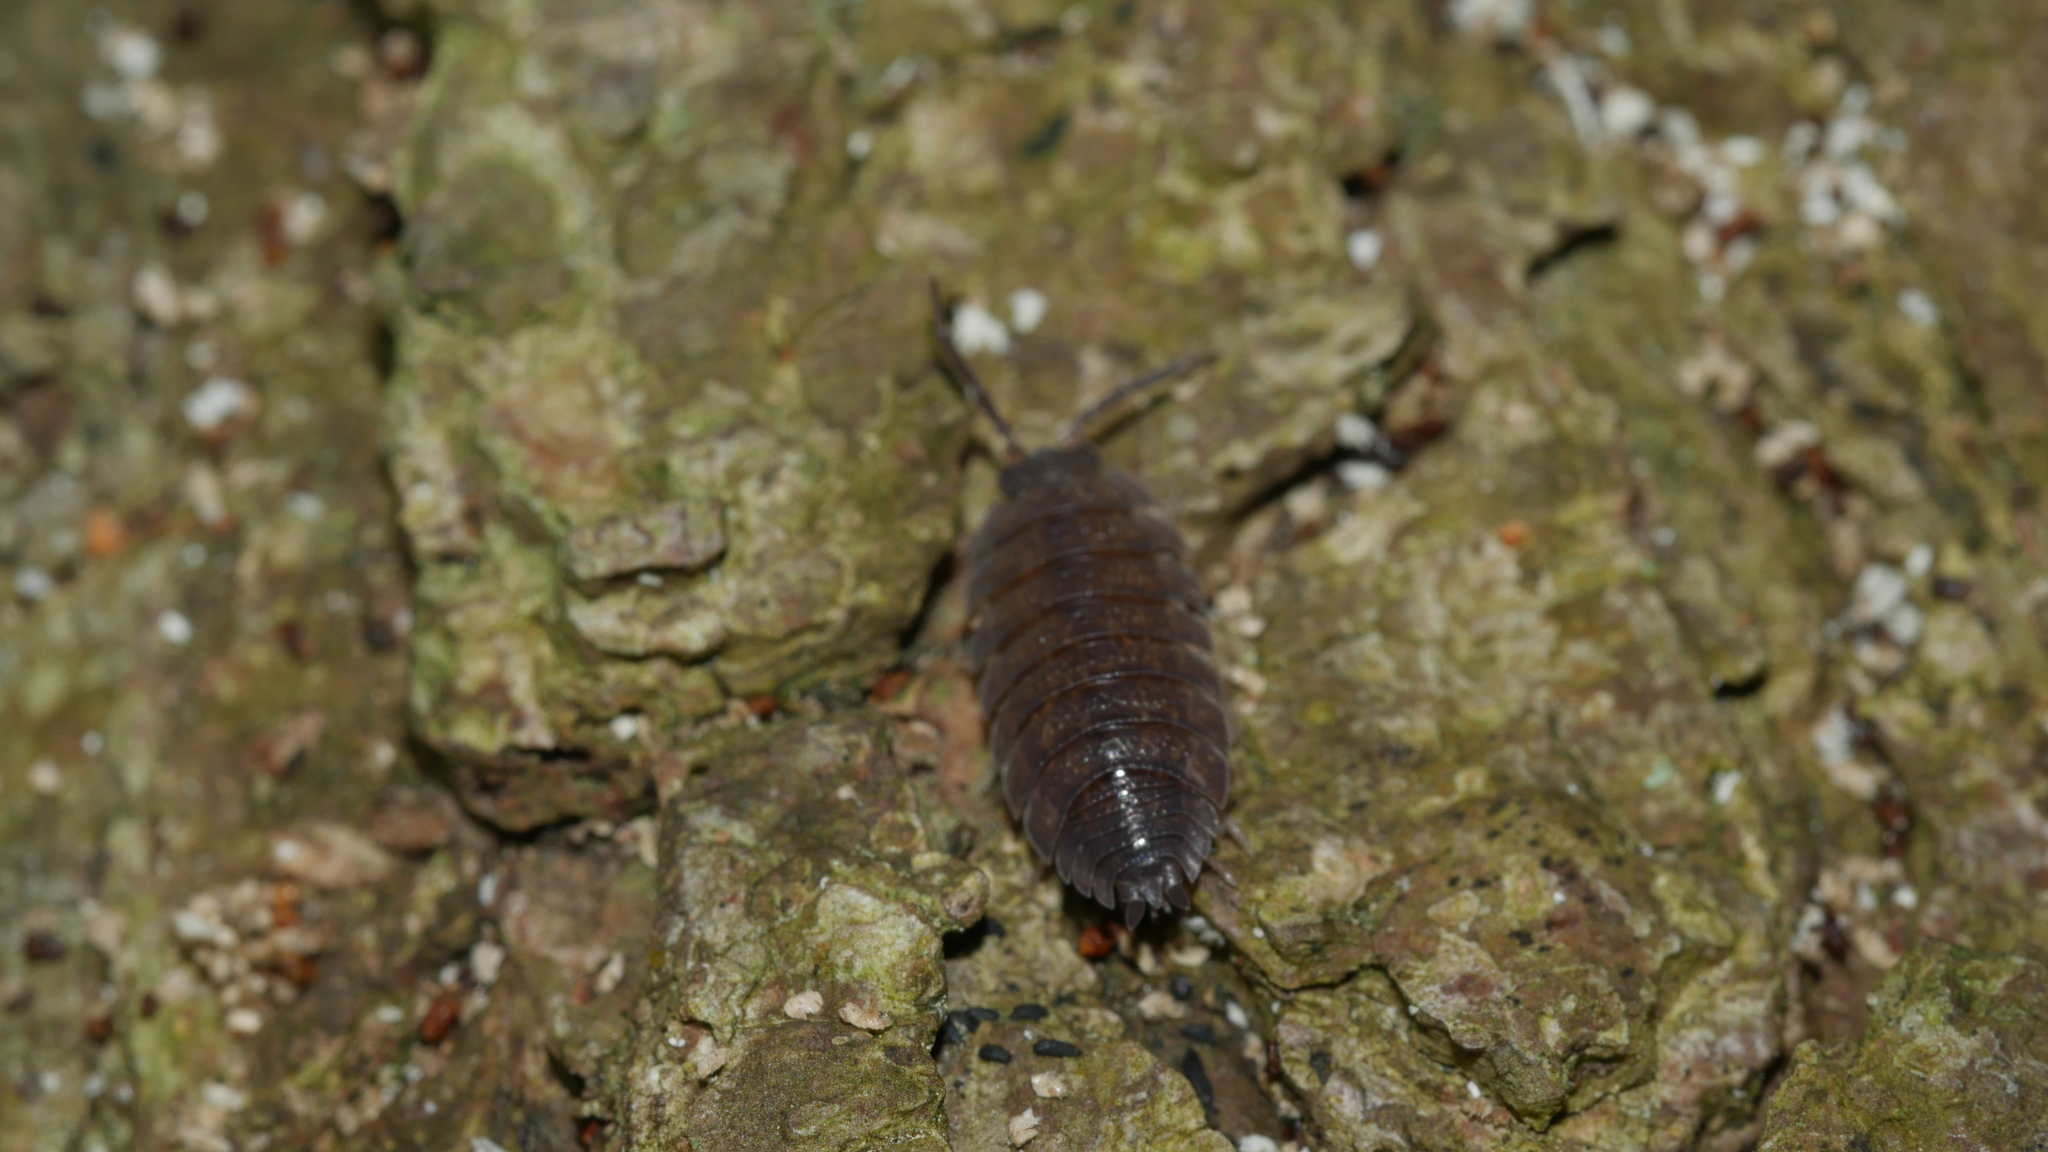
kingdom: Animalia
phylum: Arthropoda
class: Malacostraca
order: Isopoda
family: Porcellionidae
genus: Porcellio
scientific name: Porcellio scaber
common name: Common rough woodlouse
